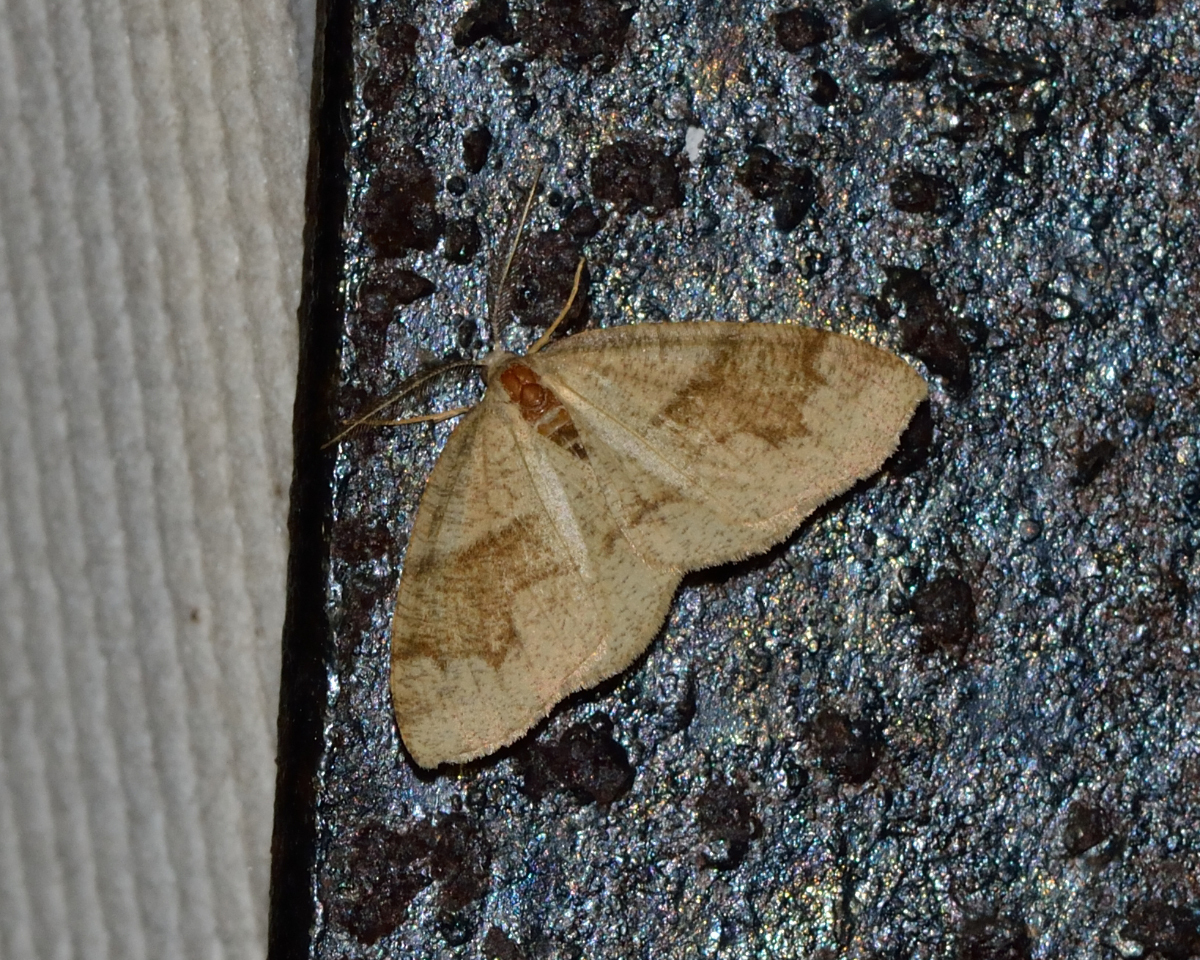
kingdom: Animalia
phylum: Arthropoda
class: Insecta
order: Lepidoptera
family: Geometridae
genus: Plagodis
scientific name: Plagodis pulveraria
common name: Barred umber
